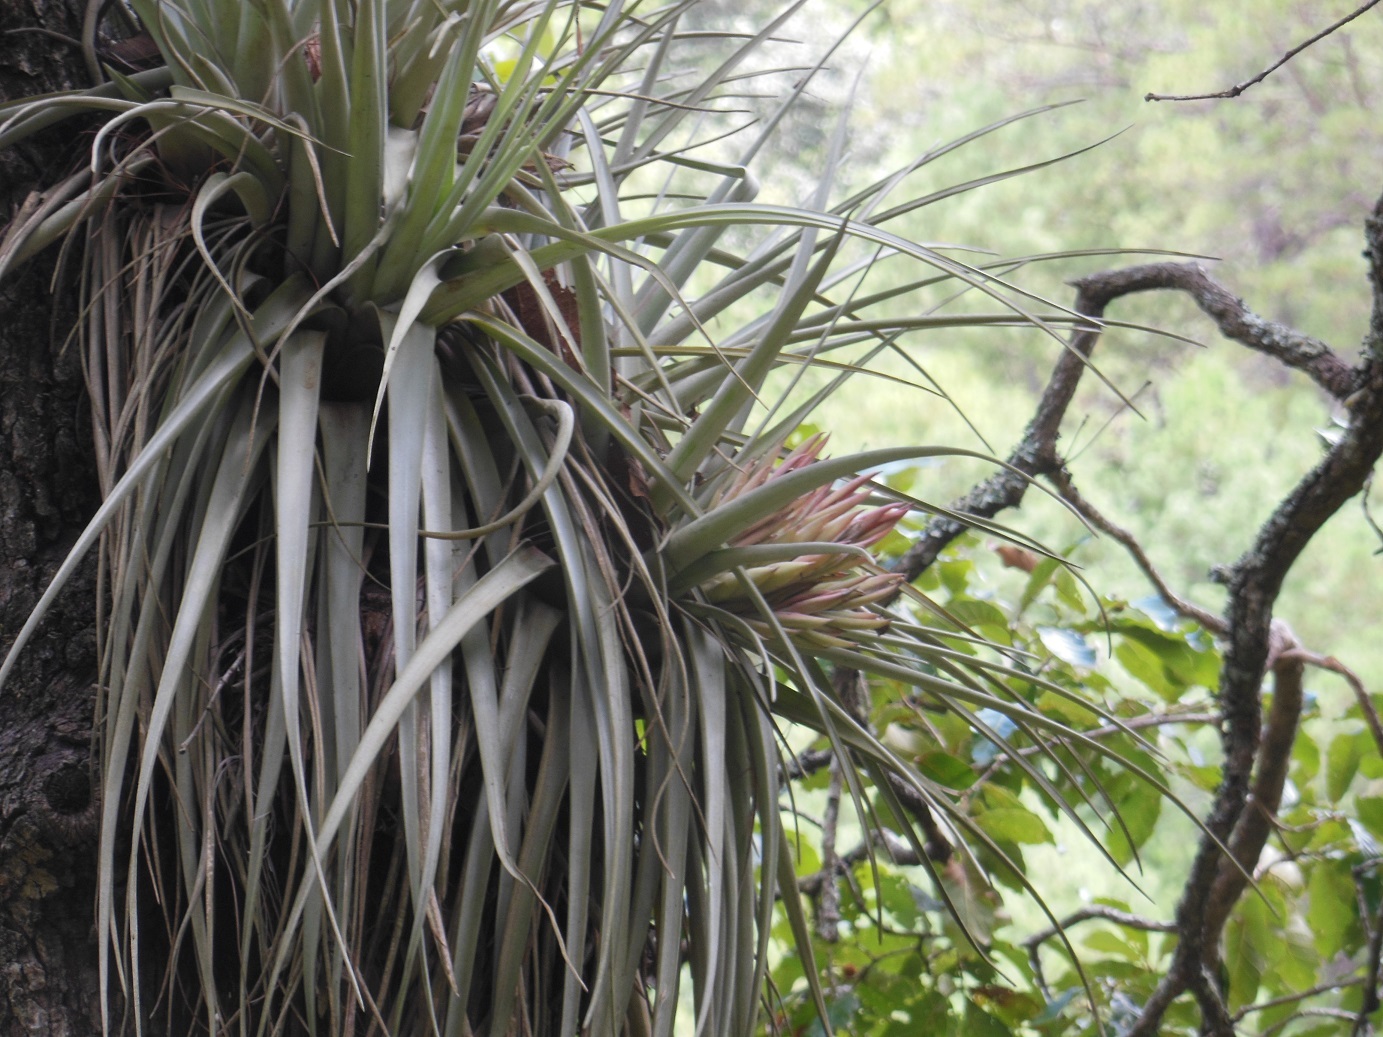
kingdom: Plantae
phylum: Tracheophyta
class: Liliopsida
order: Poales
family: Bromeliaceae
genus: Tillandsia
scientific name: Tillandsia carlsoniae
